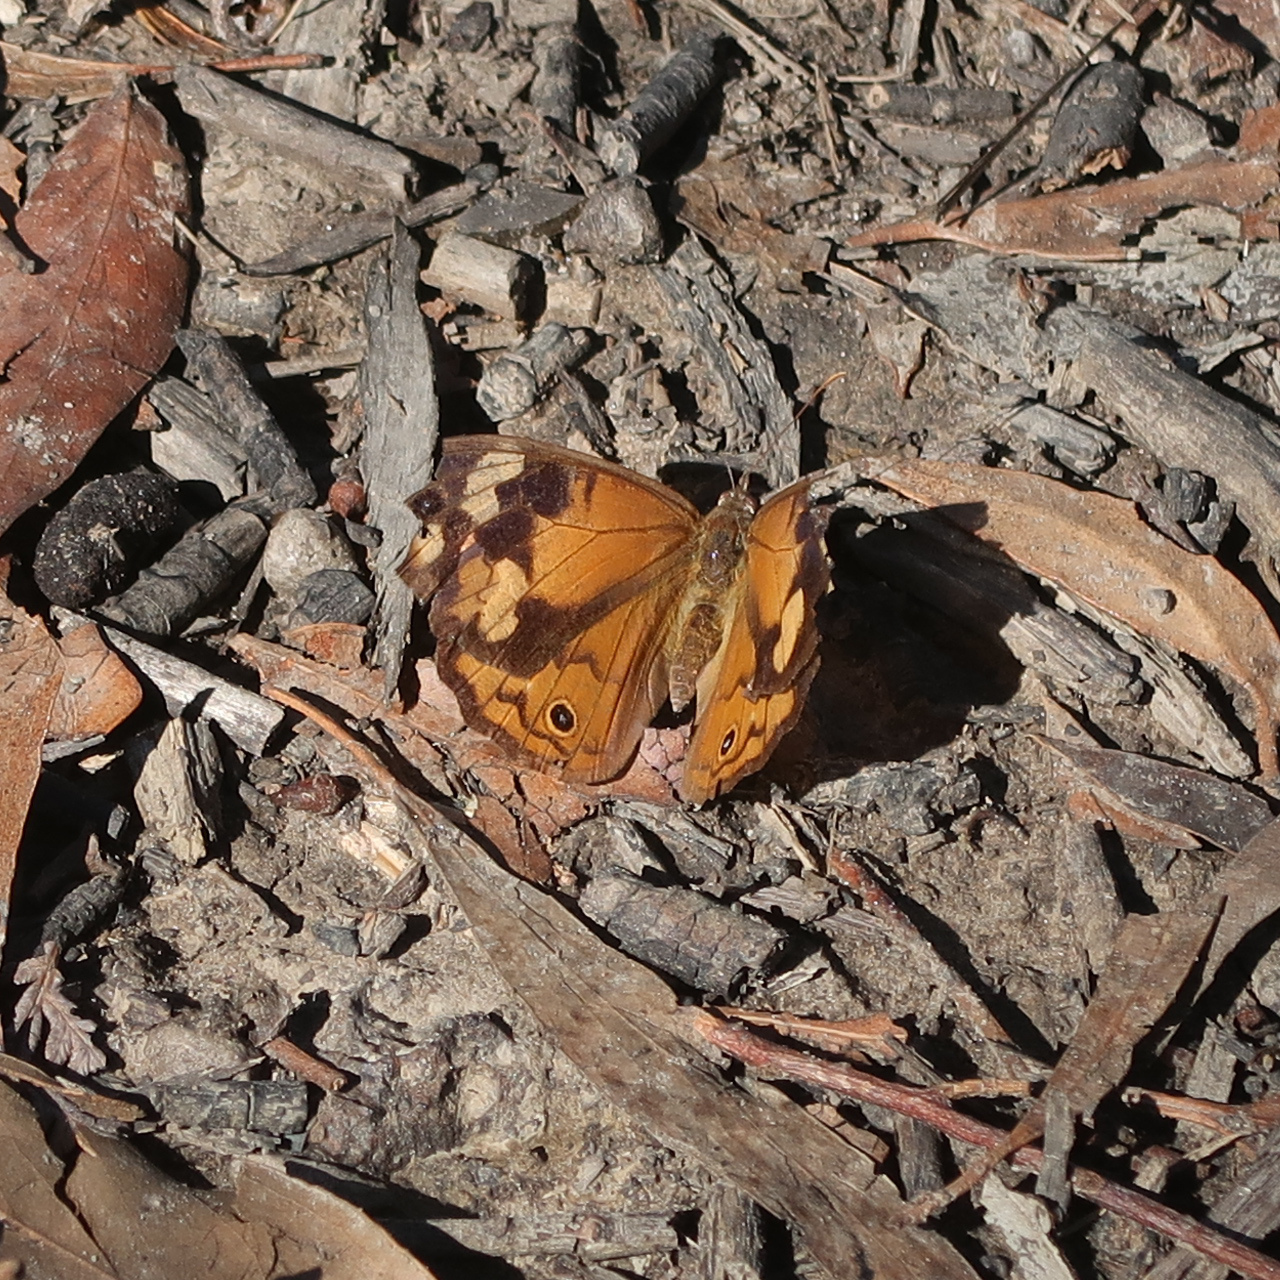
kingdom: Animalia
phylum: Arthropoda
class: Insecta
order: Lepidoptera
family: Nymphalidae
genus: Heteronympha
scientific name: Heteronympha merope
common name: Common brown
